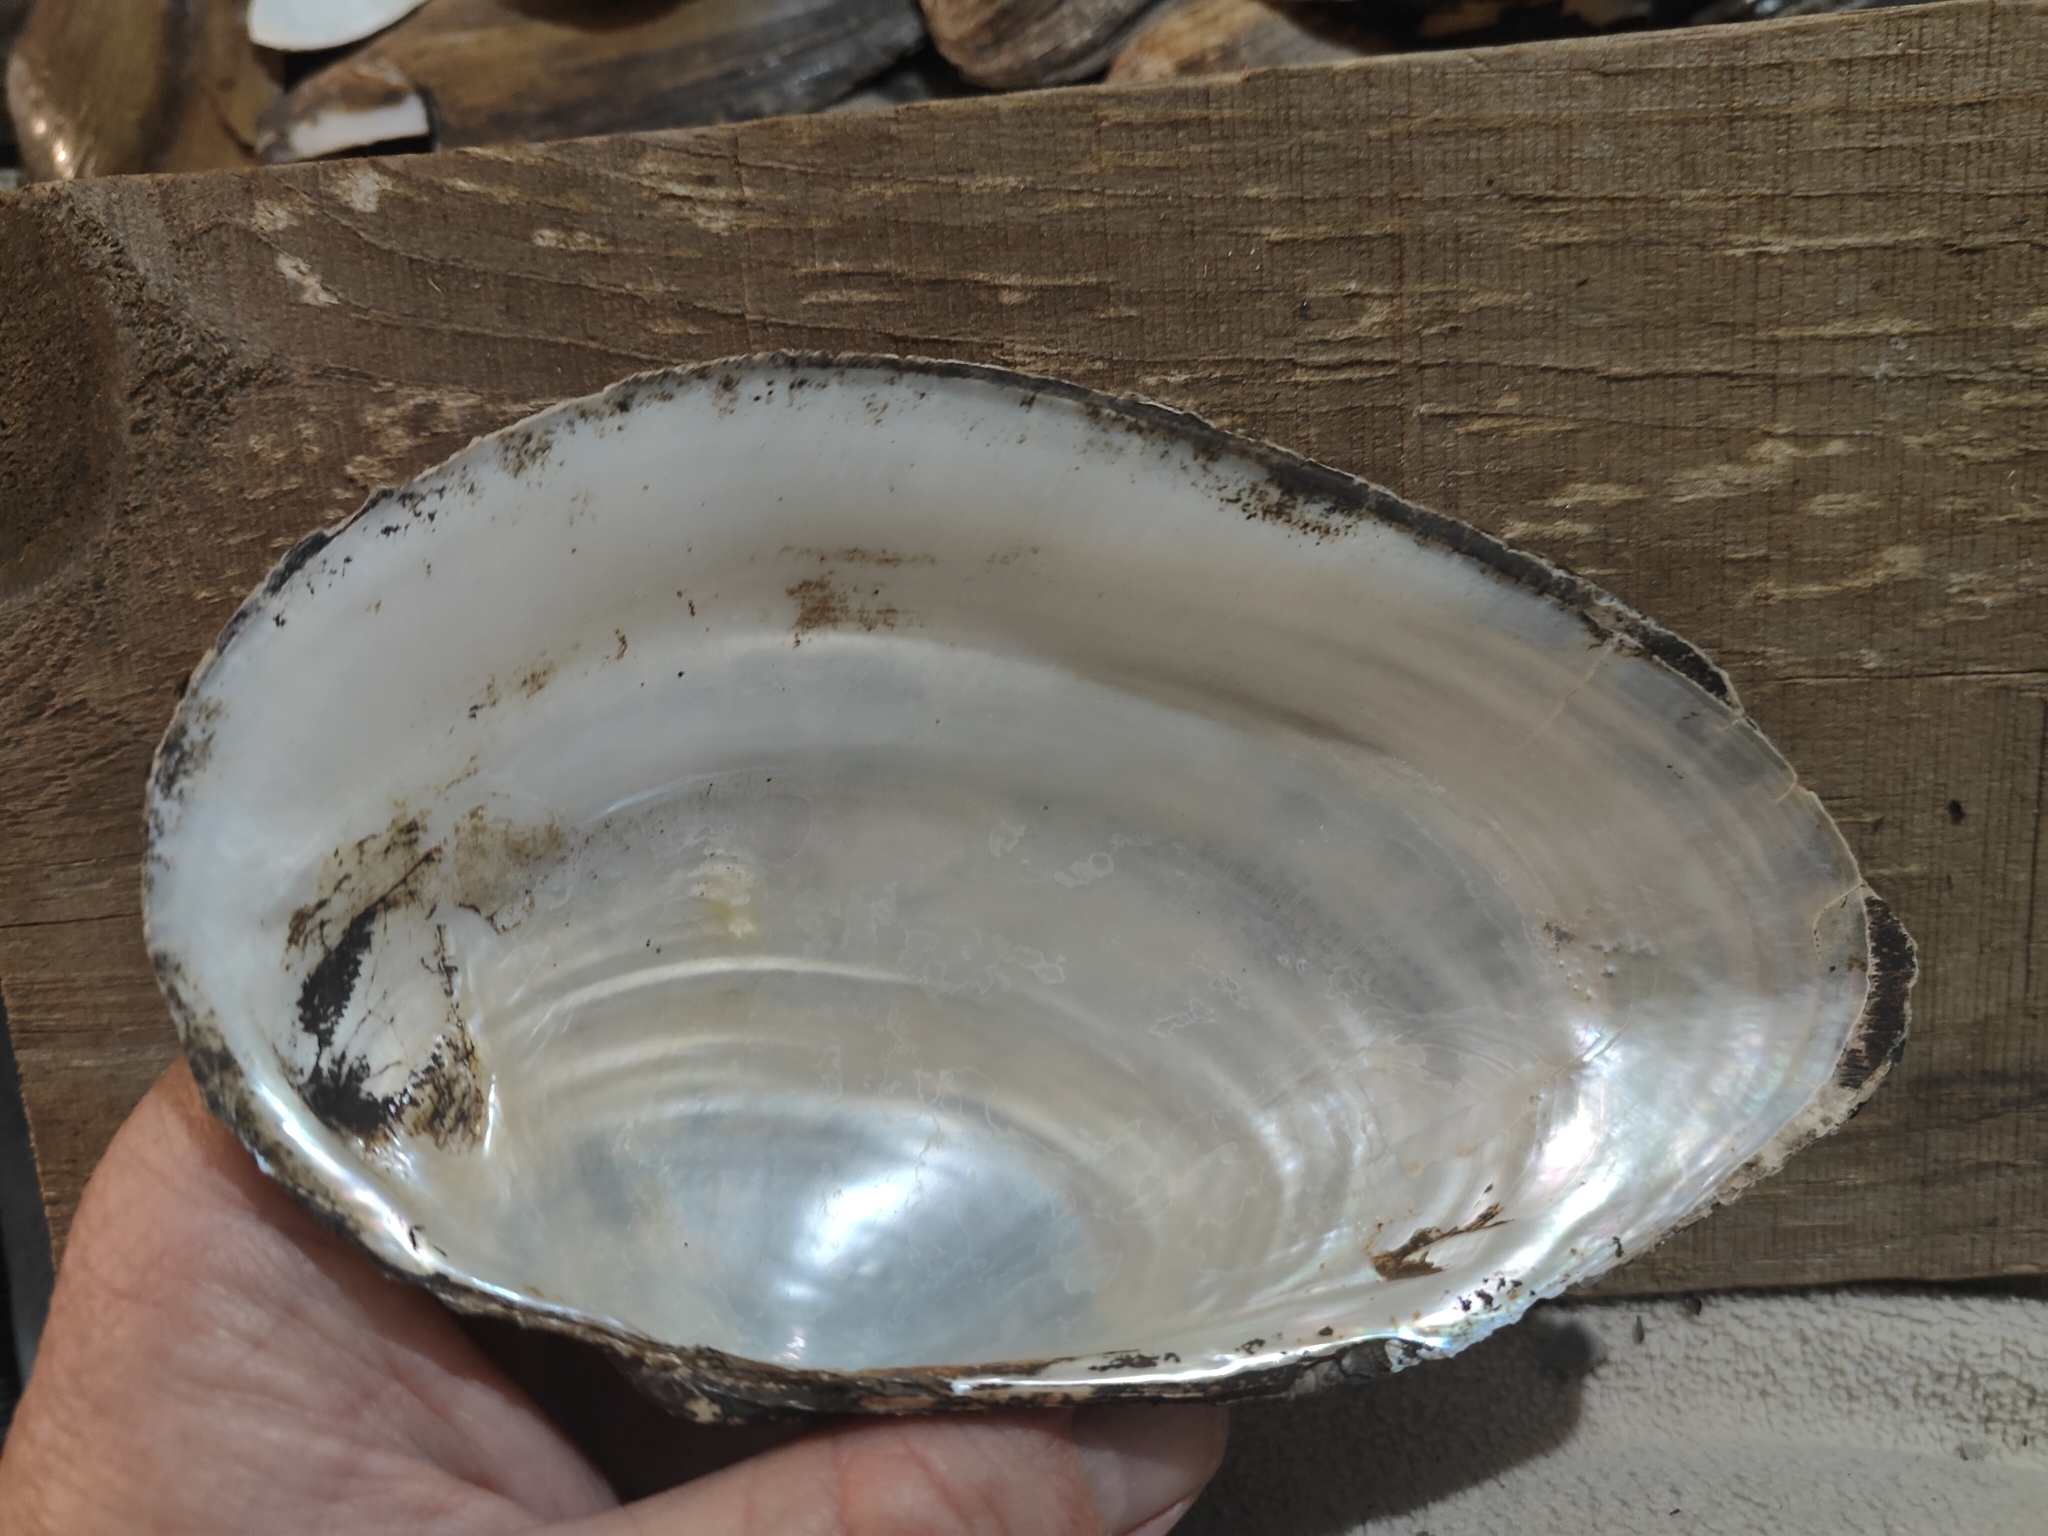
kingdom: Animalia
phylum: Mollusca
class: Bivalvia
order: Unionida
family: Unionidae
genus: Pyganodon
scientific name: Pyganodon grandis
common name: Giant floater
